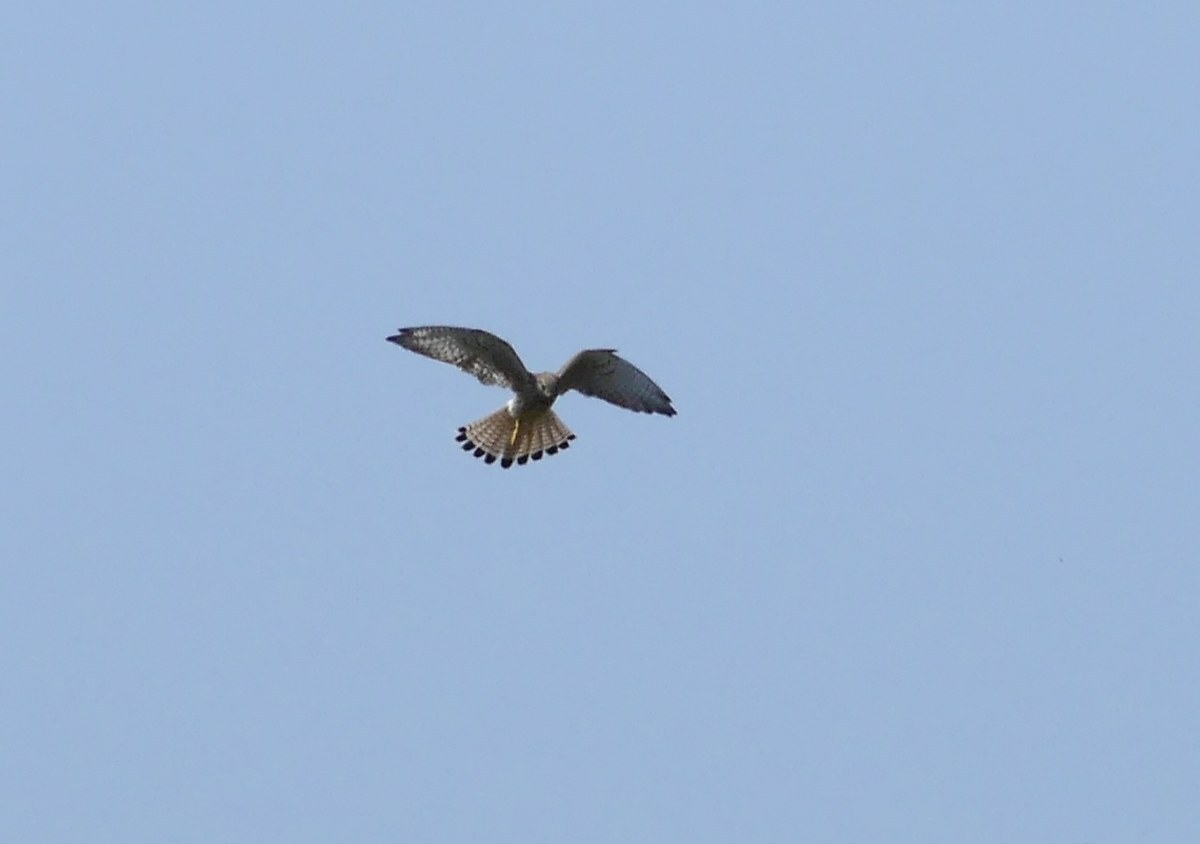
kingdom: Animalia
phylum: Chordata
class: Aves
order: Falconiformes
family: Falconidae
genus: Falco
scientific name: Falco tinnunculus
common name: Common kestrel
